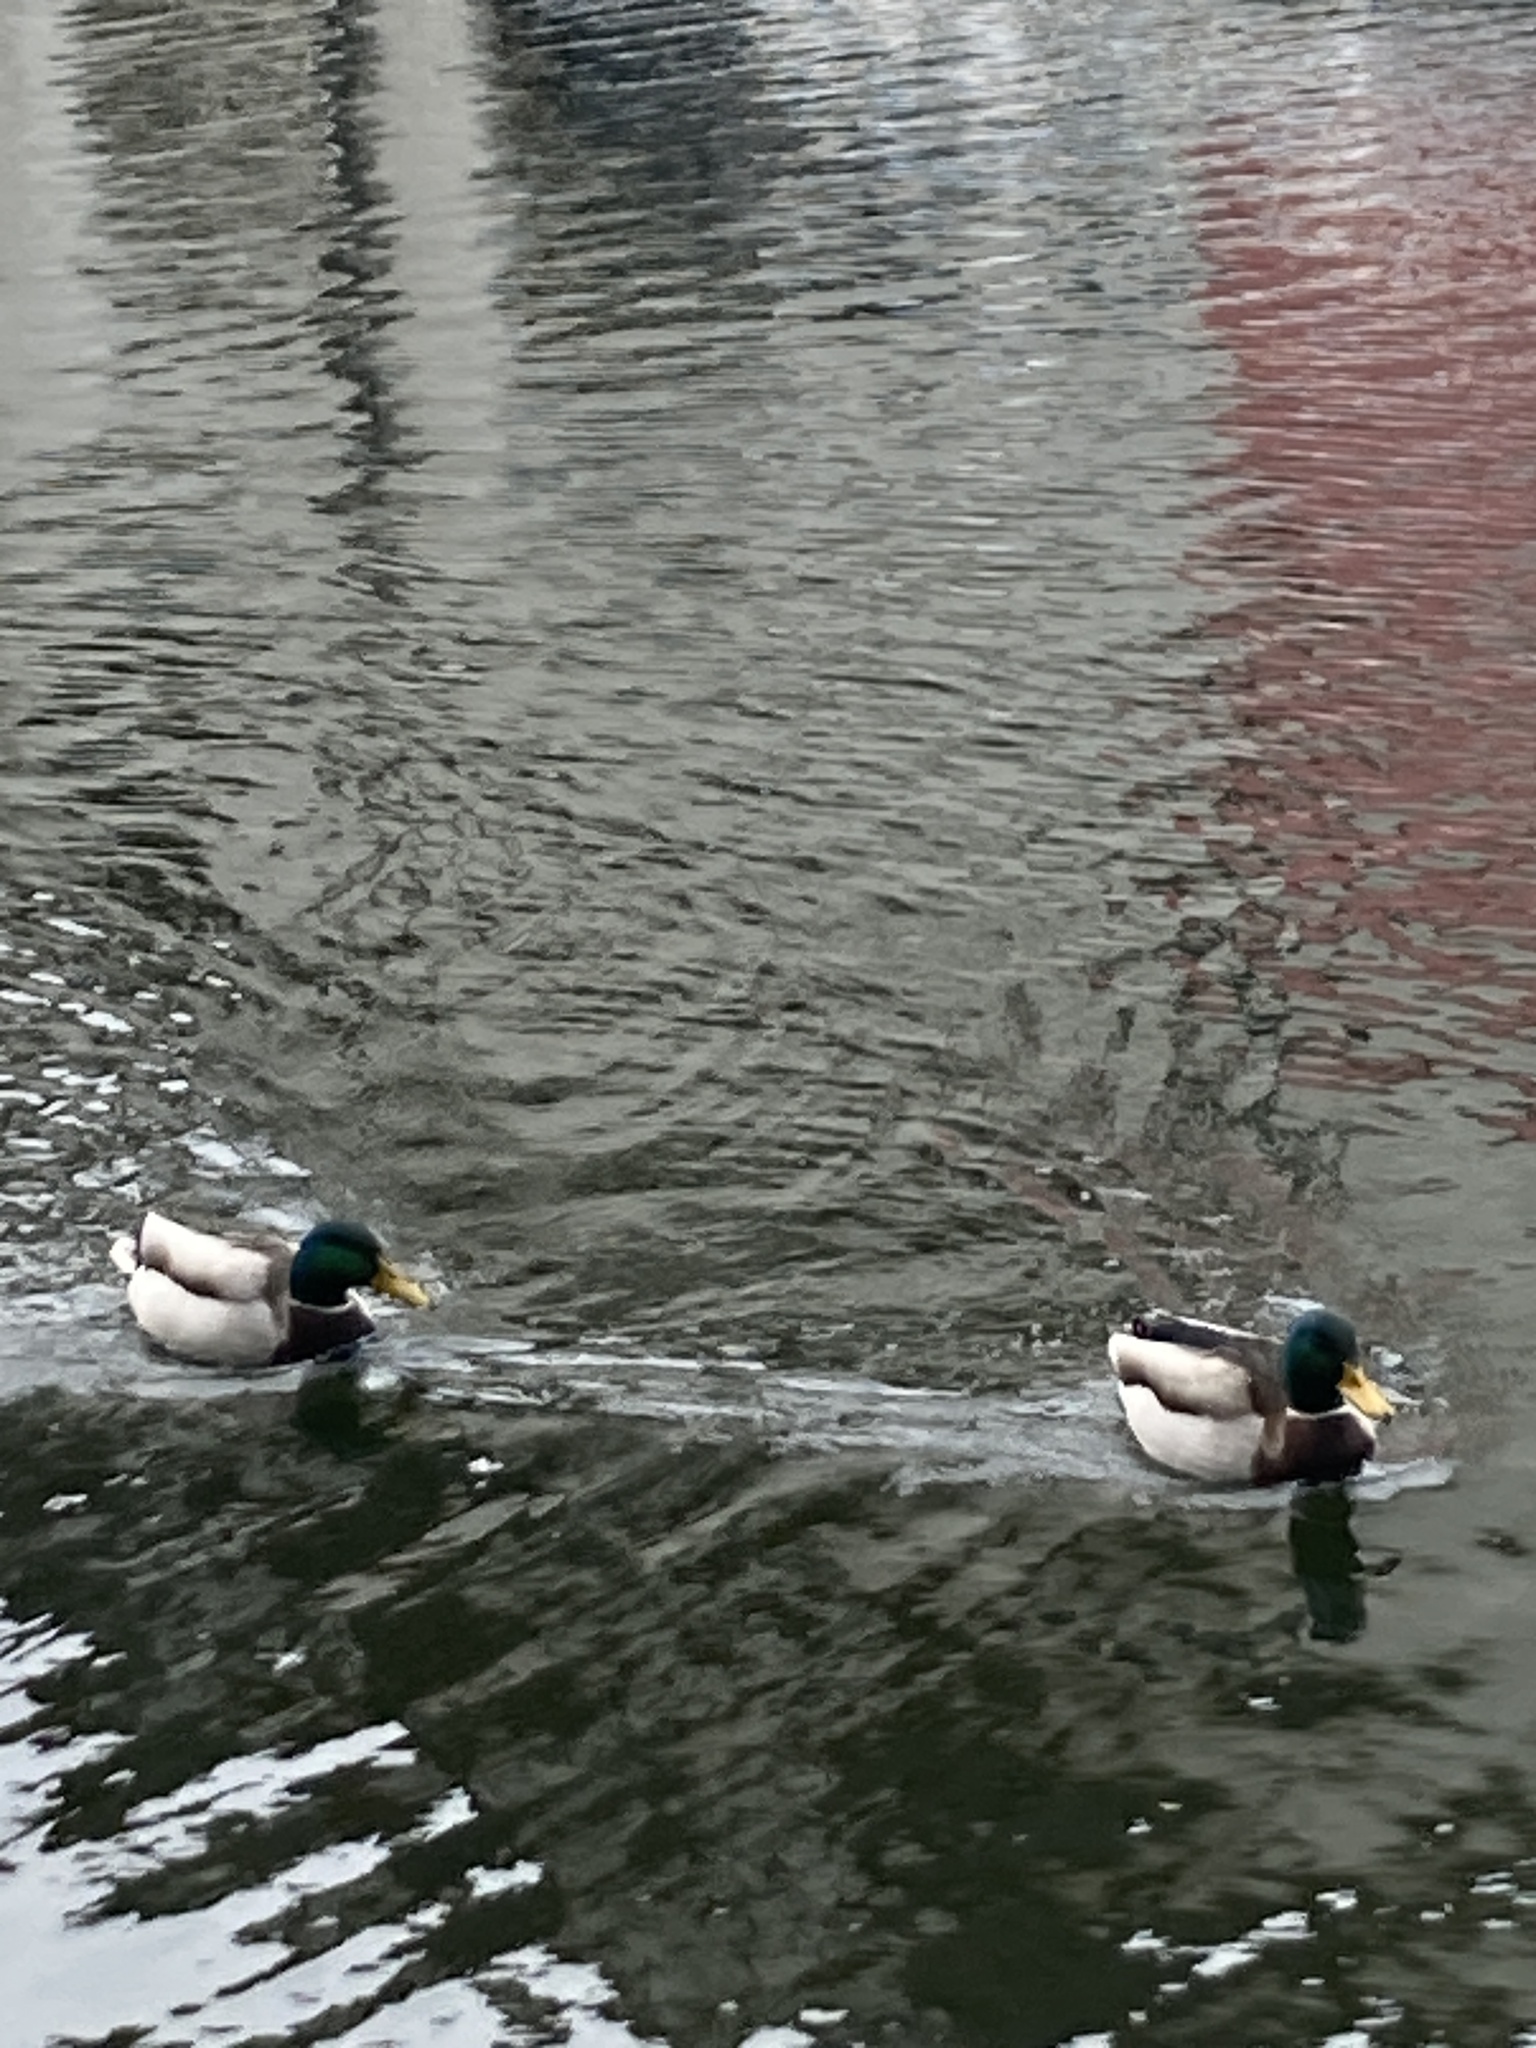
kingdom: Animalia
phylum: Chordata
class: Aves
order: Anseriformes
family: Anatidae
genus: Anas
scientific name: Anas platyrhynchos
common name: Mallard
